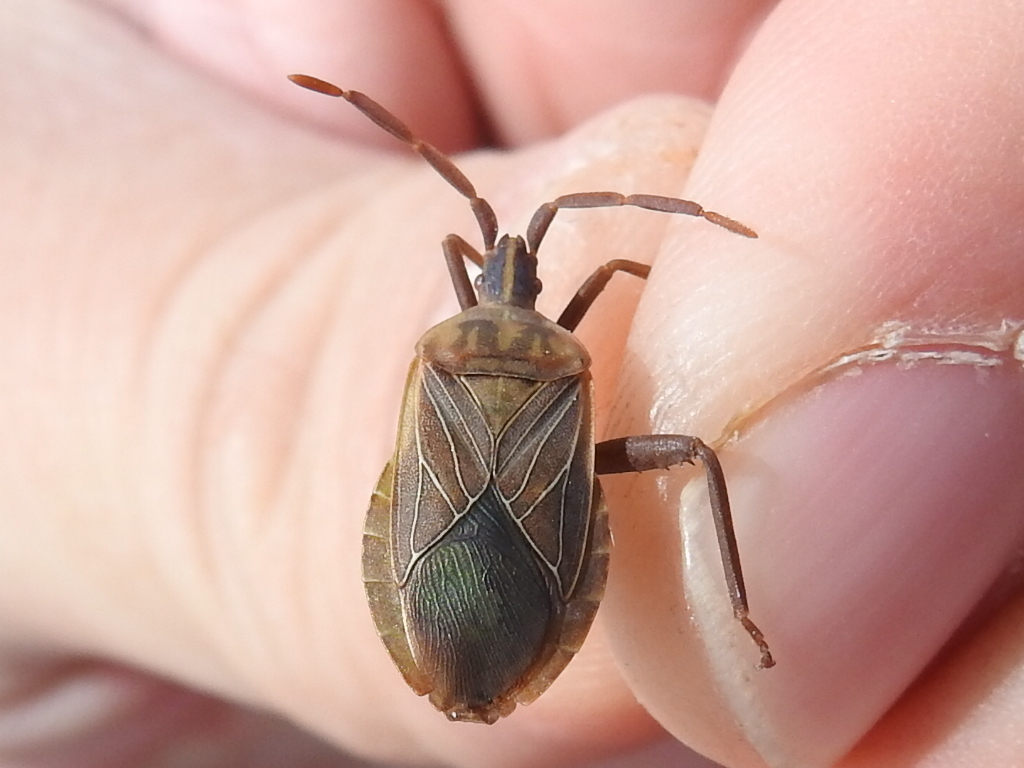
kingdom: Animalia
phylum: Arthropoda
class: Insecta
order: Hemiptera
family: Coreidae
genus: Chelinidea
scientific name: Chelinidea vittiger
